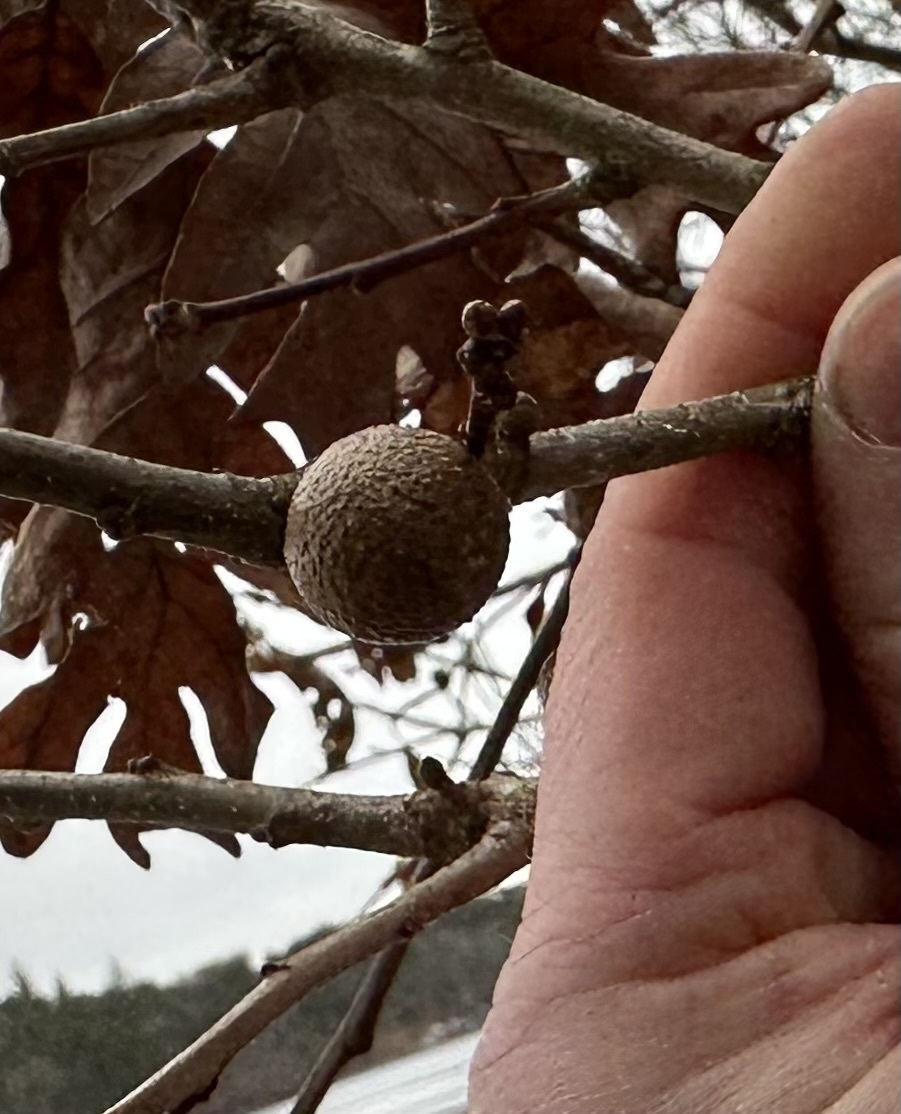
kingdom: Animalia
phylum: Arthropoda
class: Insecta
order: Hymenoptera
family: Cynipidae
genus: Disholcaspis
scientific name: Disholcaspis quercusglobulus
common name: Round bullet gall wasp
